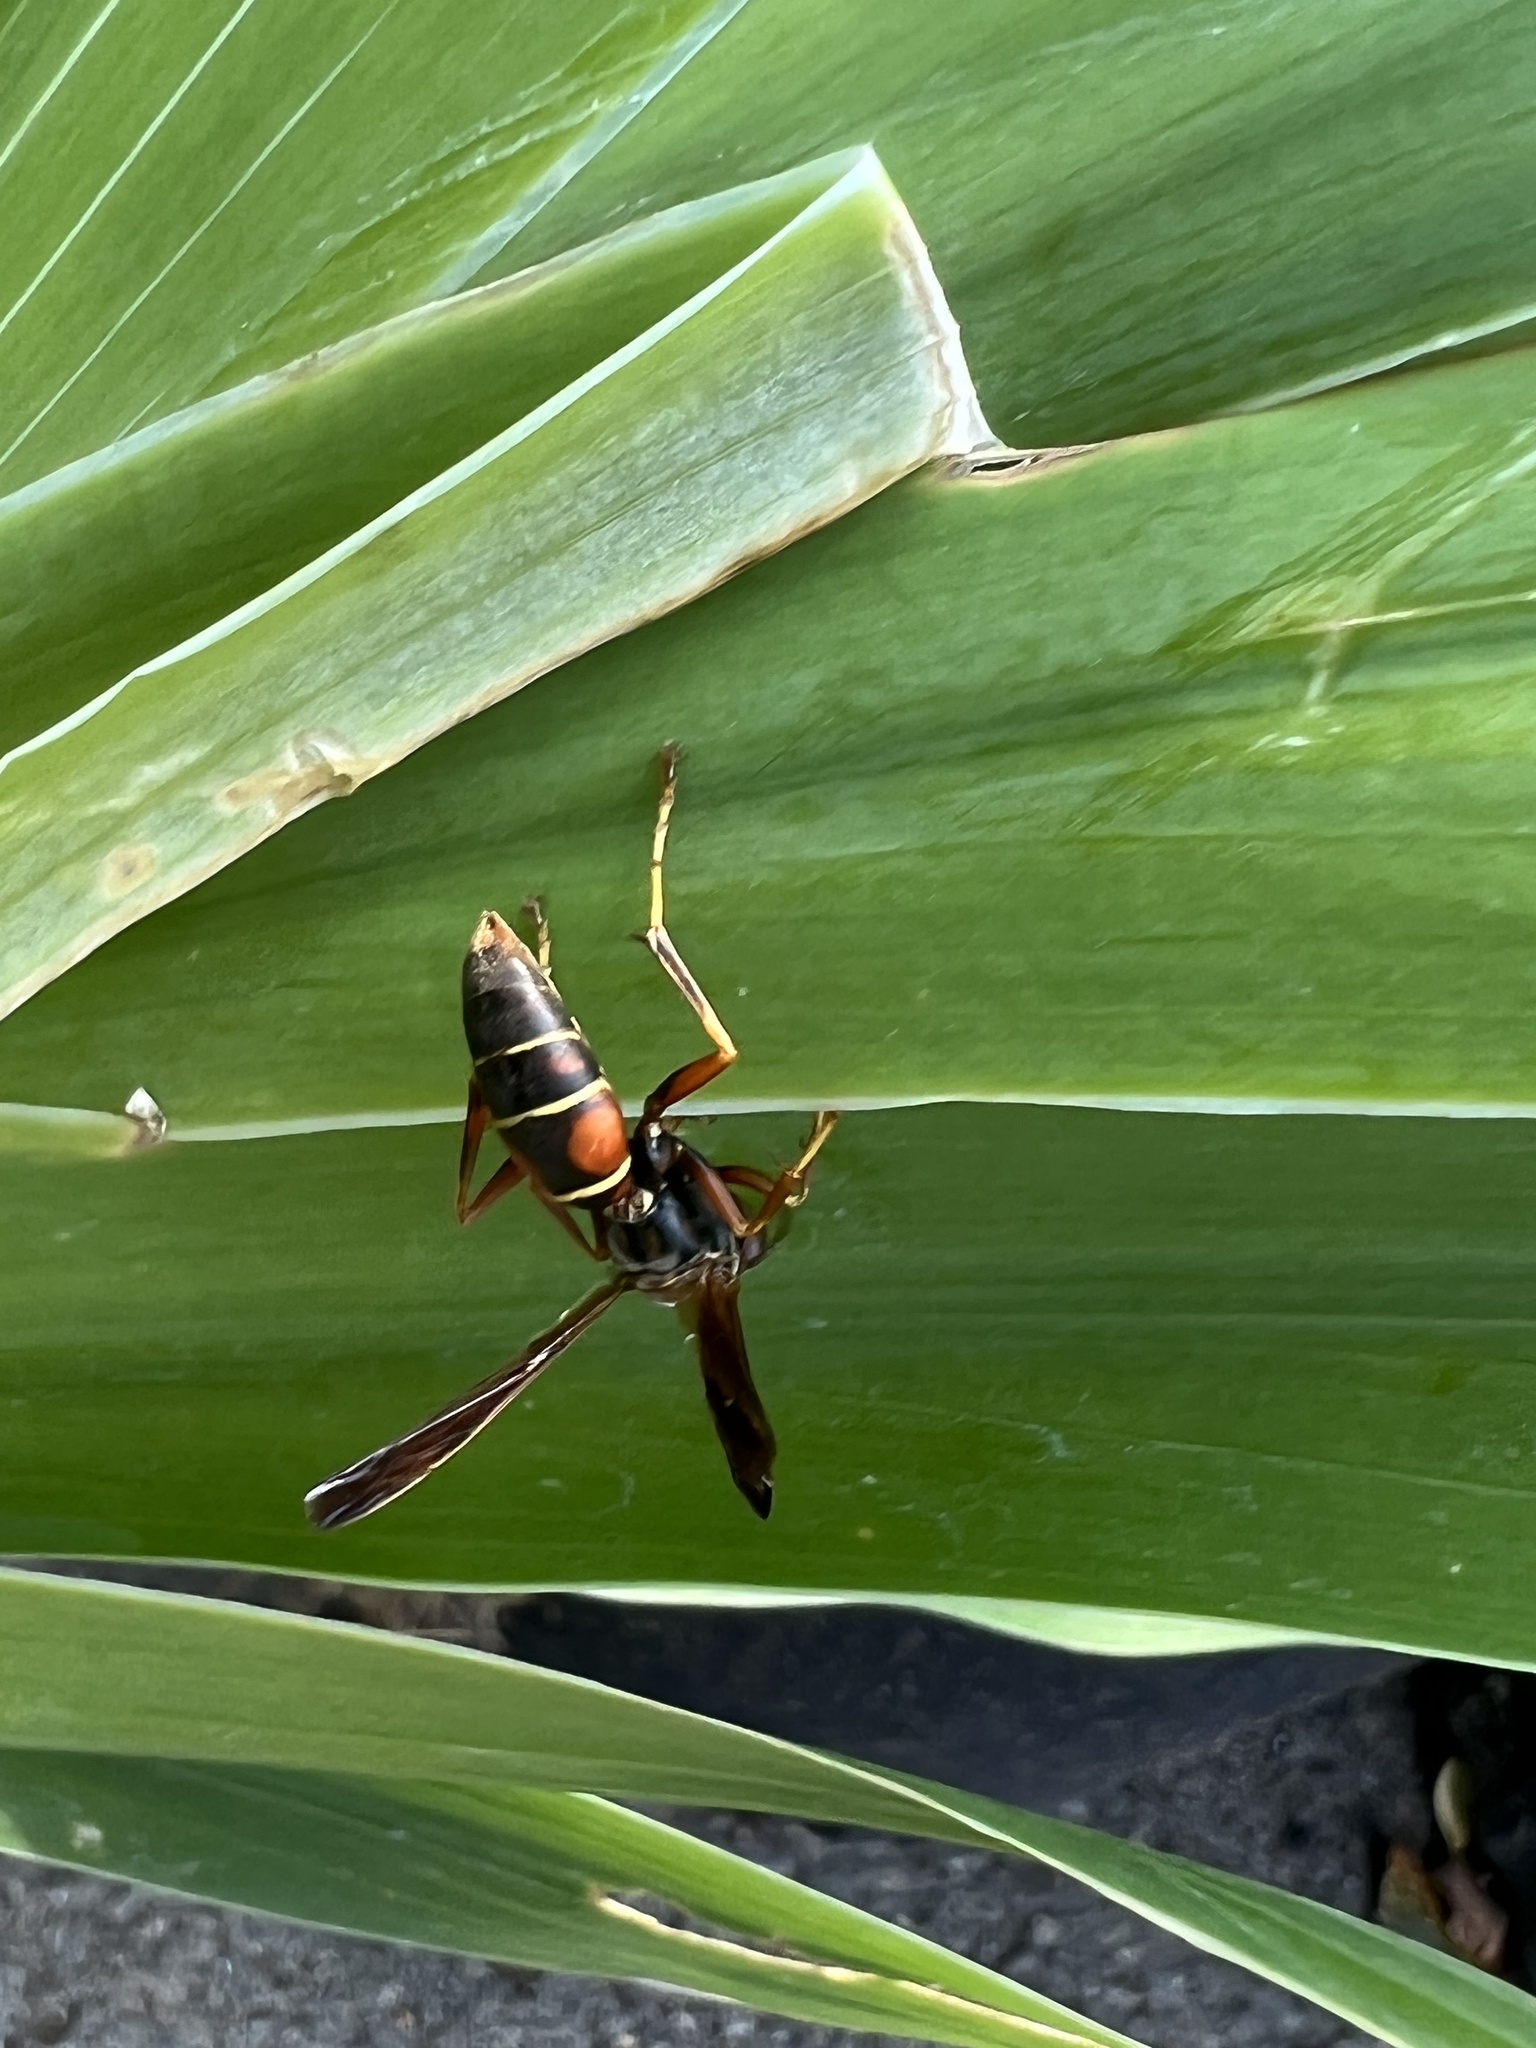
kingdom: Animalia
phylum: Arthropoda
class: Insecta
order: Hymenoptera
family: Eumenidae
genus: Polistes
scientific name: Polistes fuscatus
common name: Dark paper wasp
